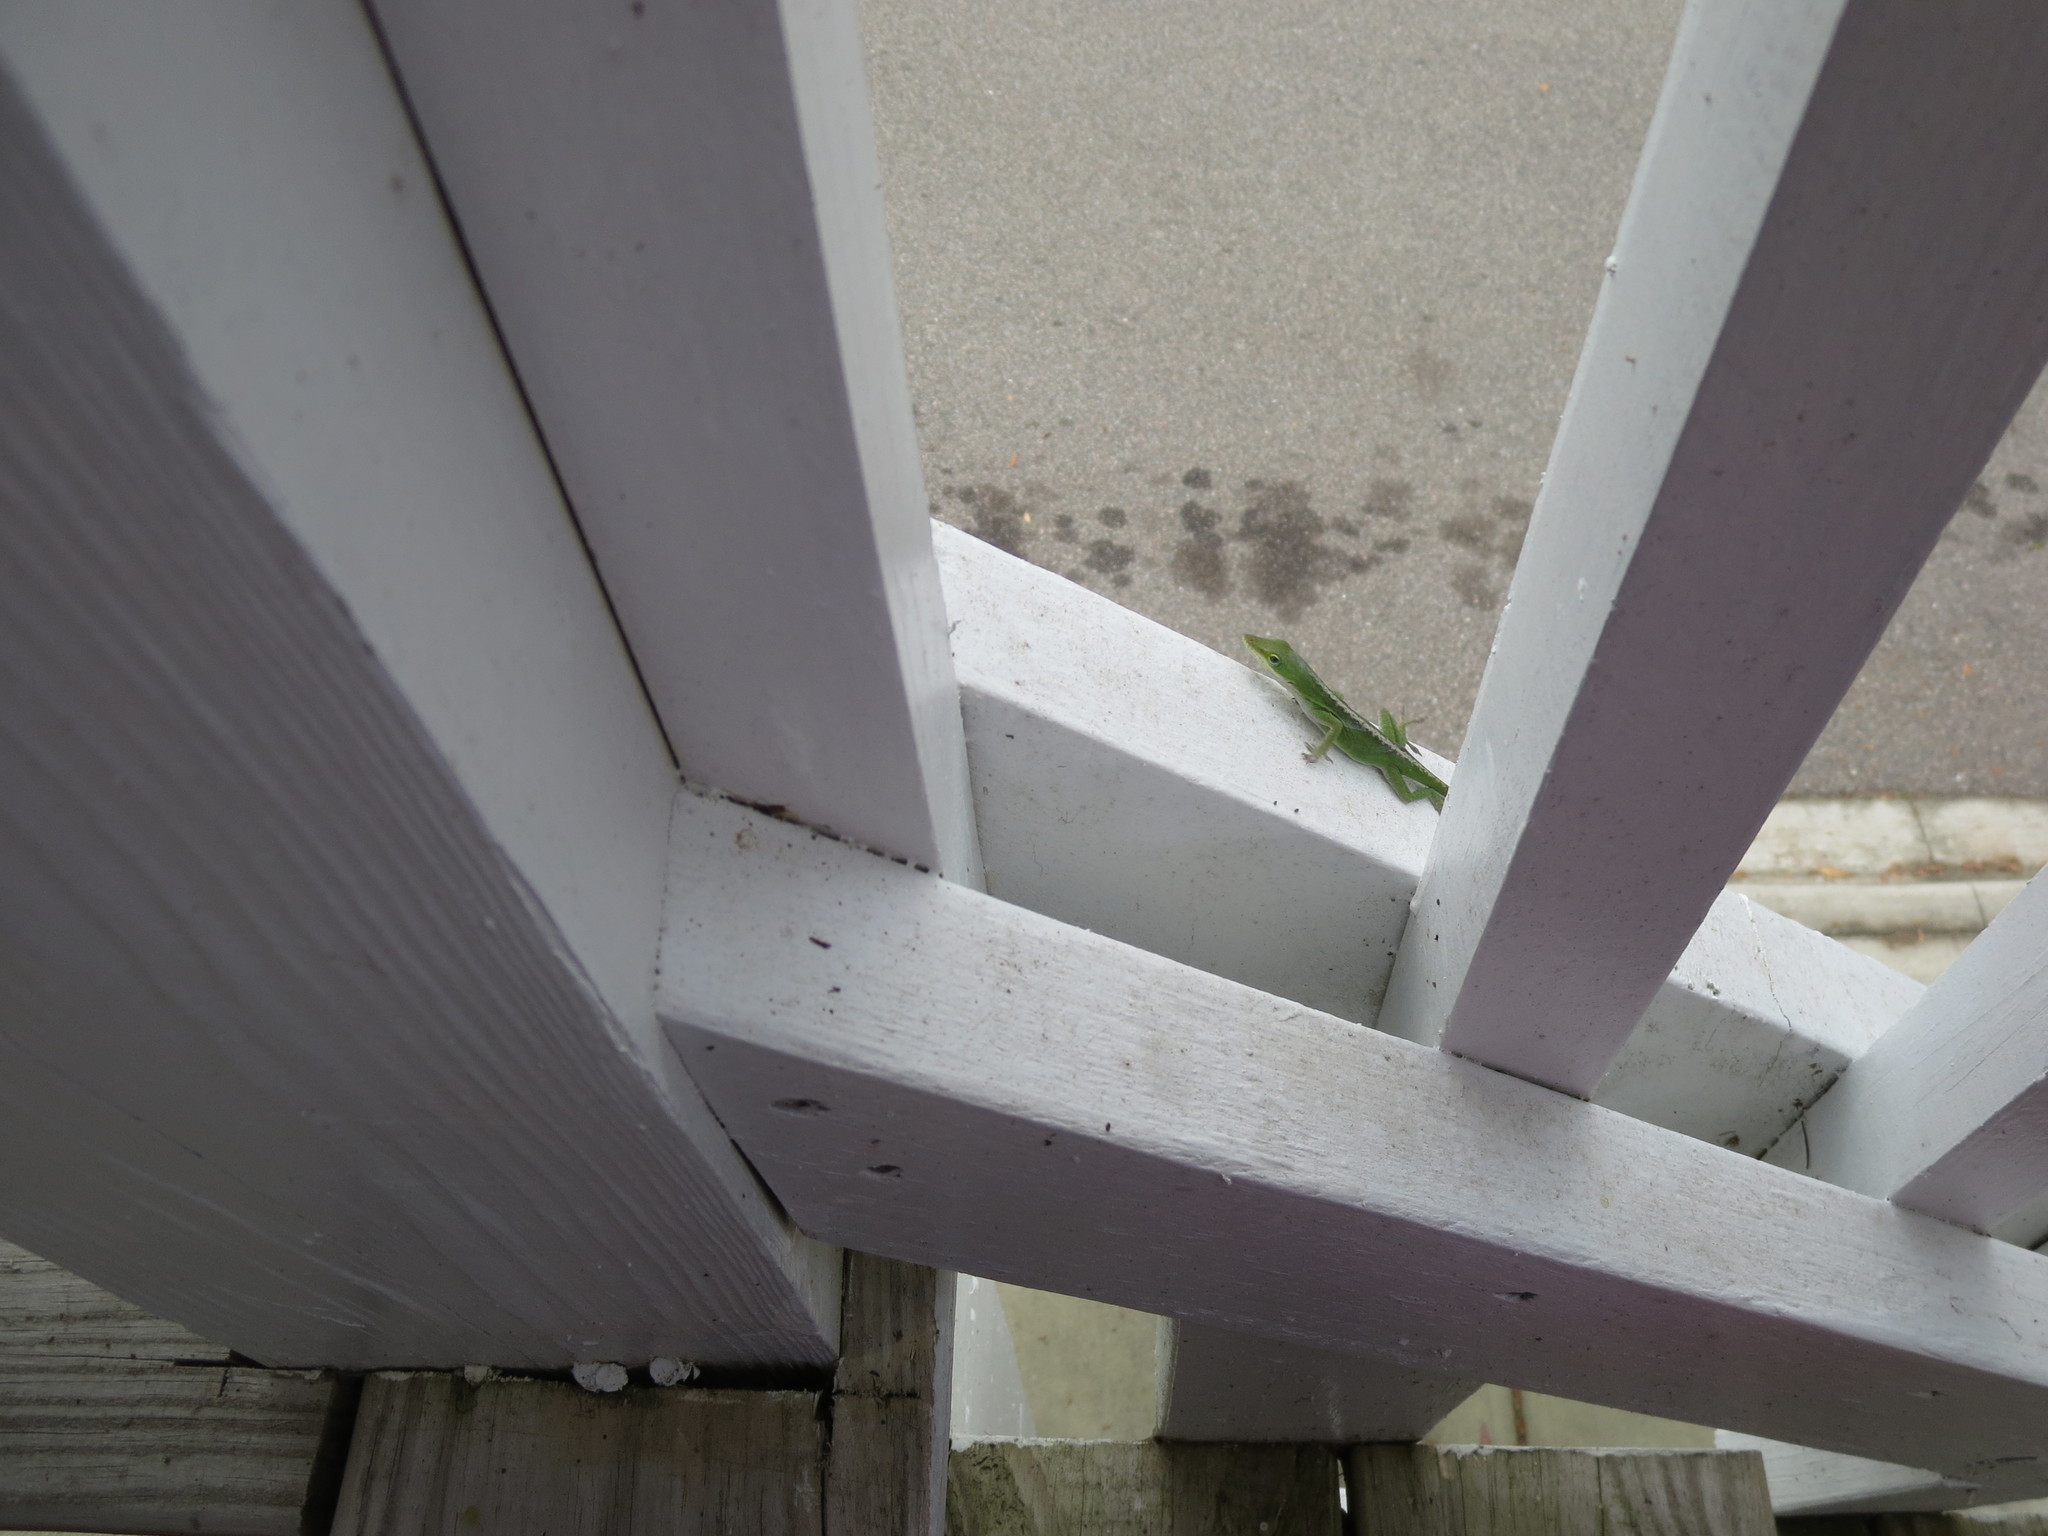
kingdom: Animalia
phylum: Chordata
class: Squamata
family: Dactyloidae
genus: Anolis
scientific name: Anolis carolinensis
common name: Green anole
